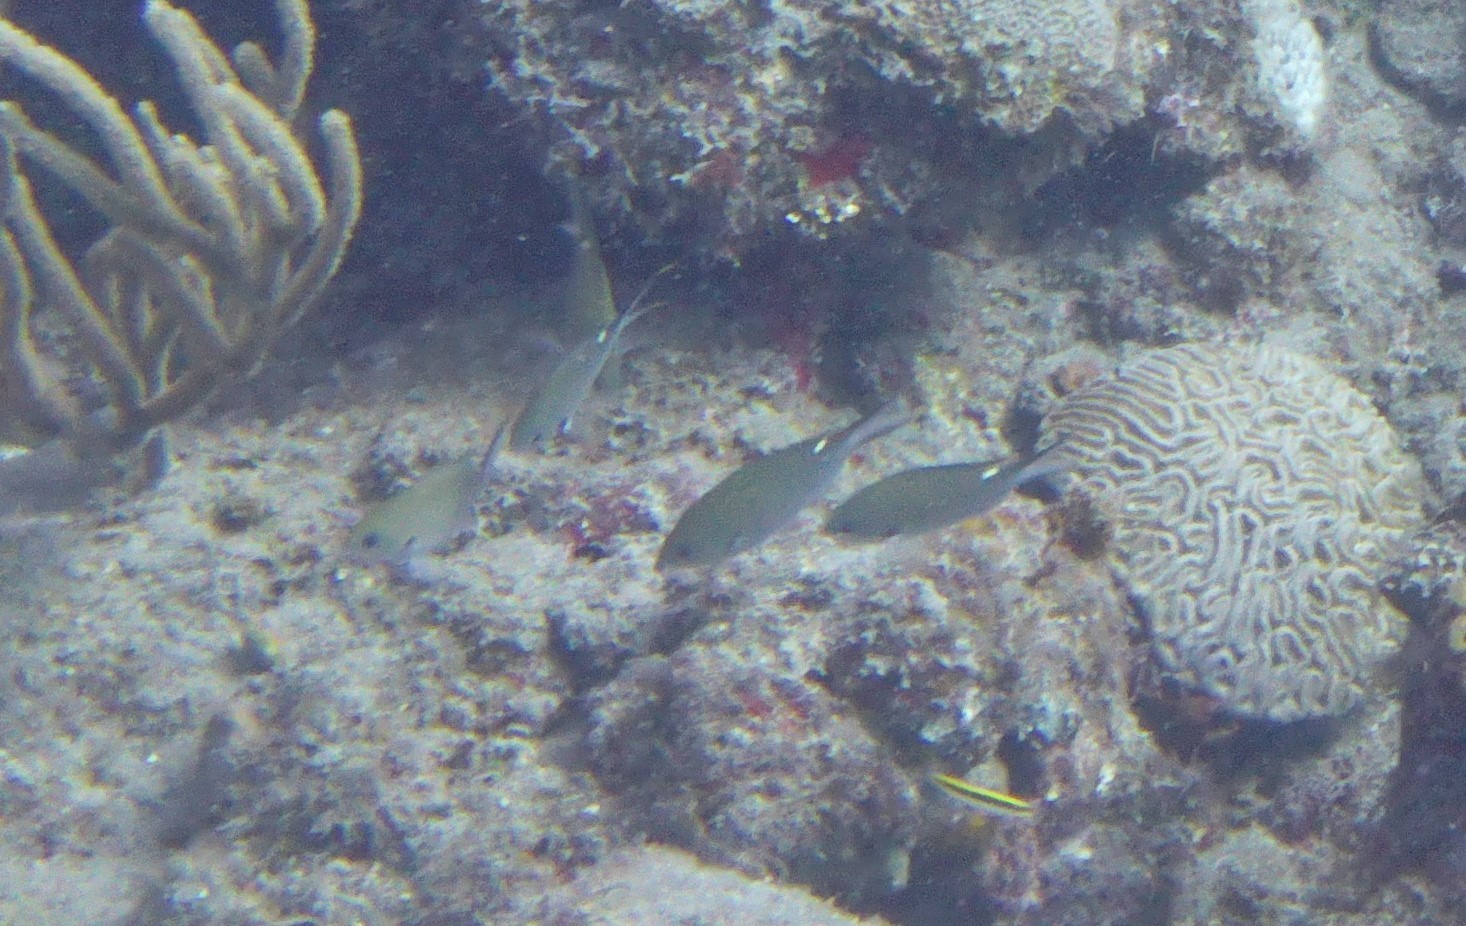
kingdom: Animalia
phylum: Chordata
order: Perciformes
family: Pomacentridae
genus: Chromis
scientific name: Chromis multilineata
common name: Brown chromis
